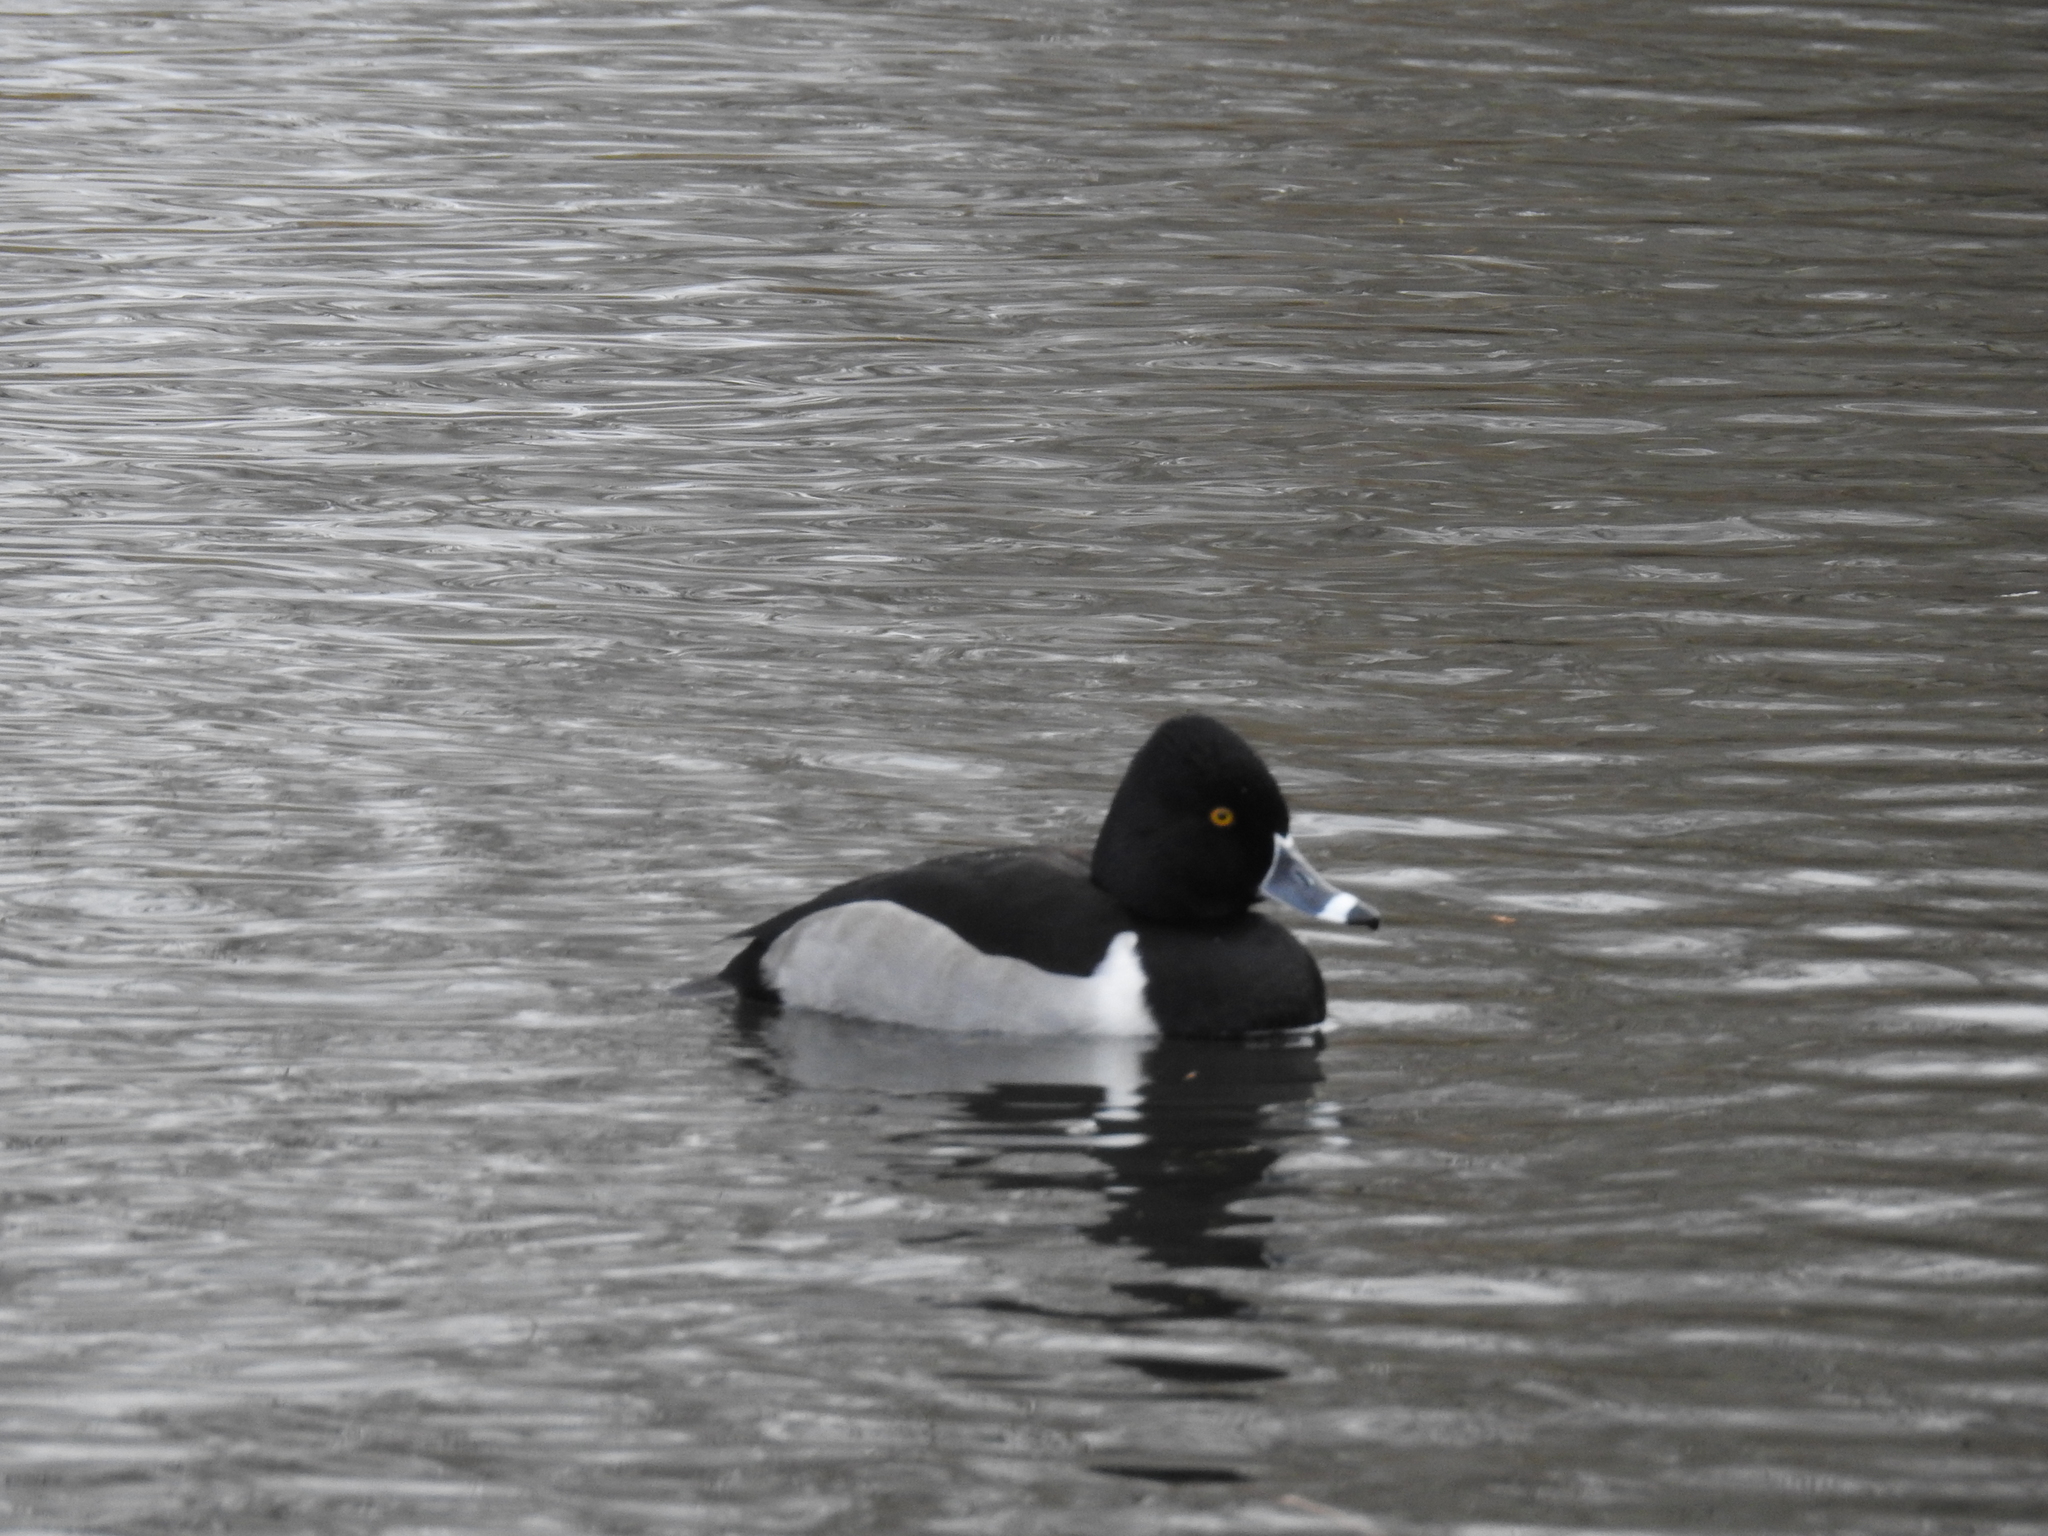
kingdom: Animalia
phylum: Chordata
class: Aves
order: Anseriformes
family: Anatidae
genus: Aythya
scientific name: Aythya collaris
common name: Ring-necked duck
